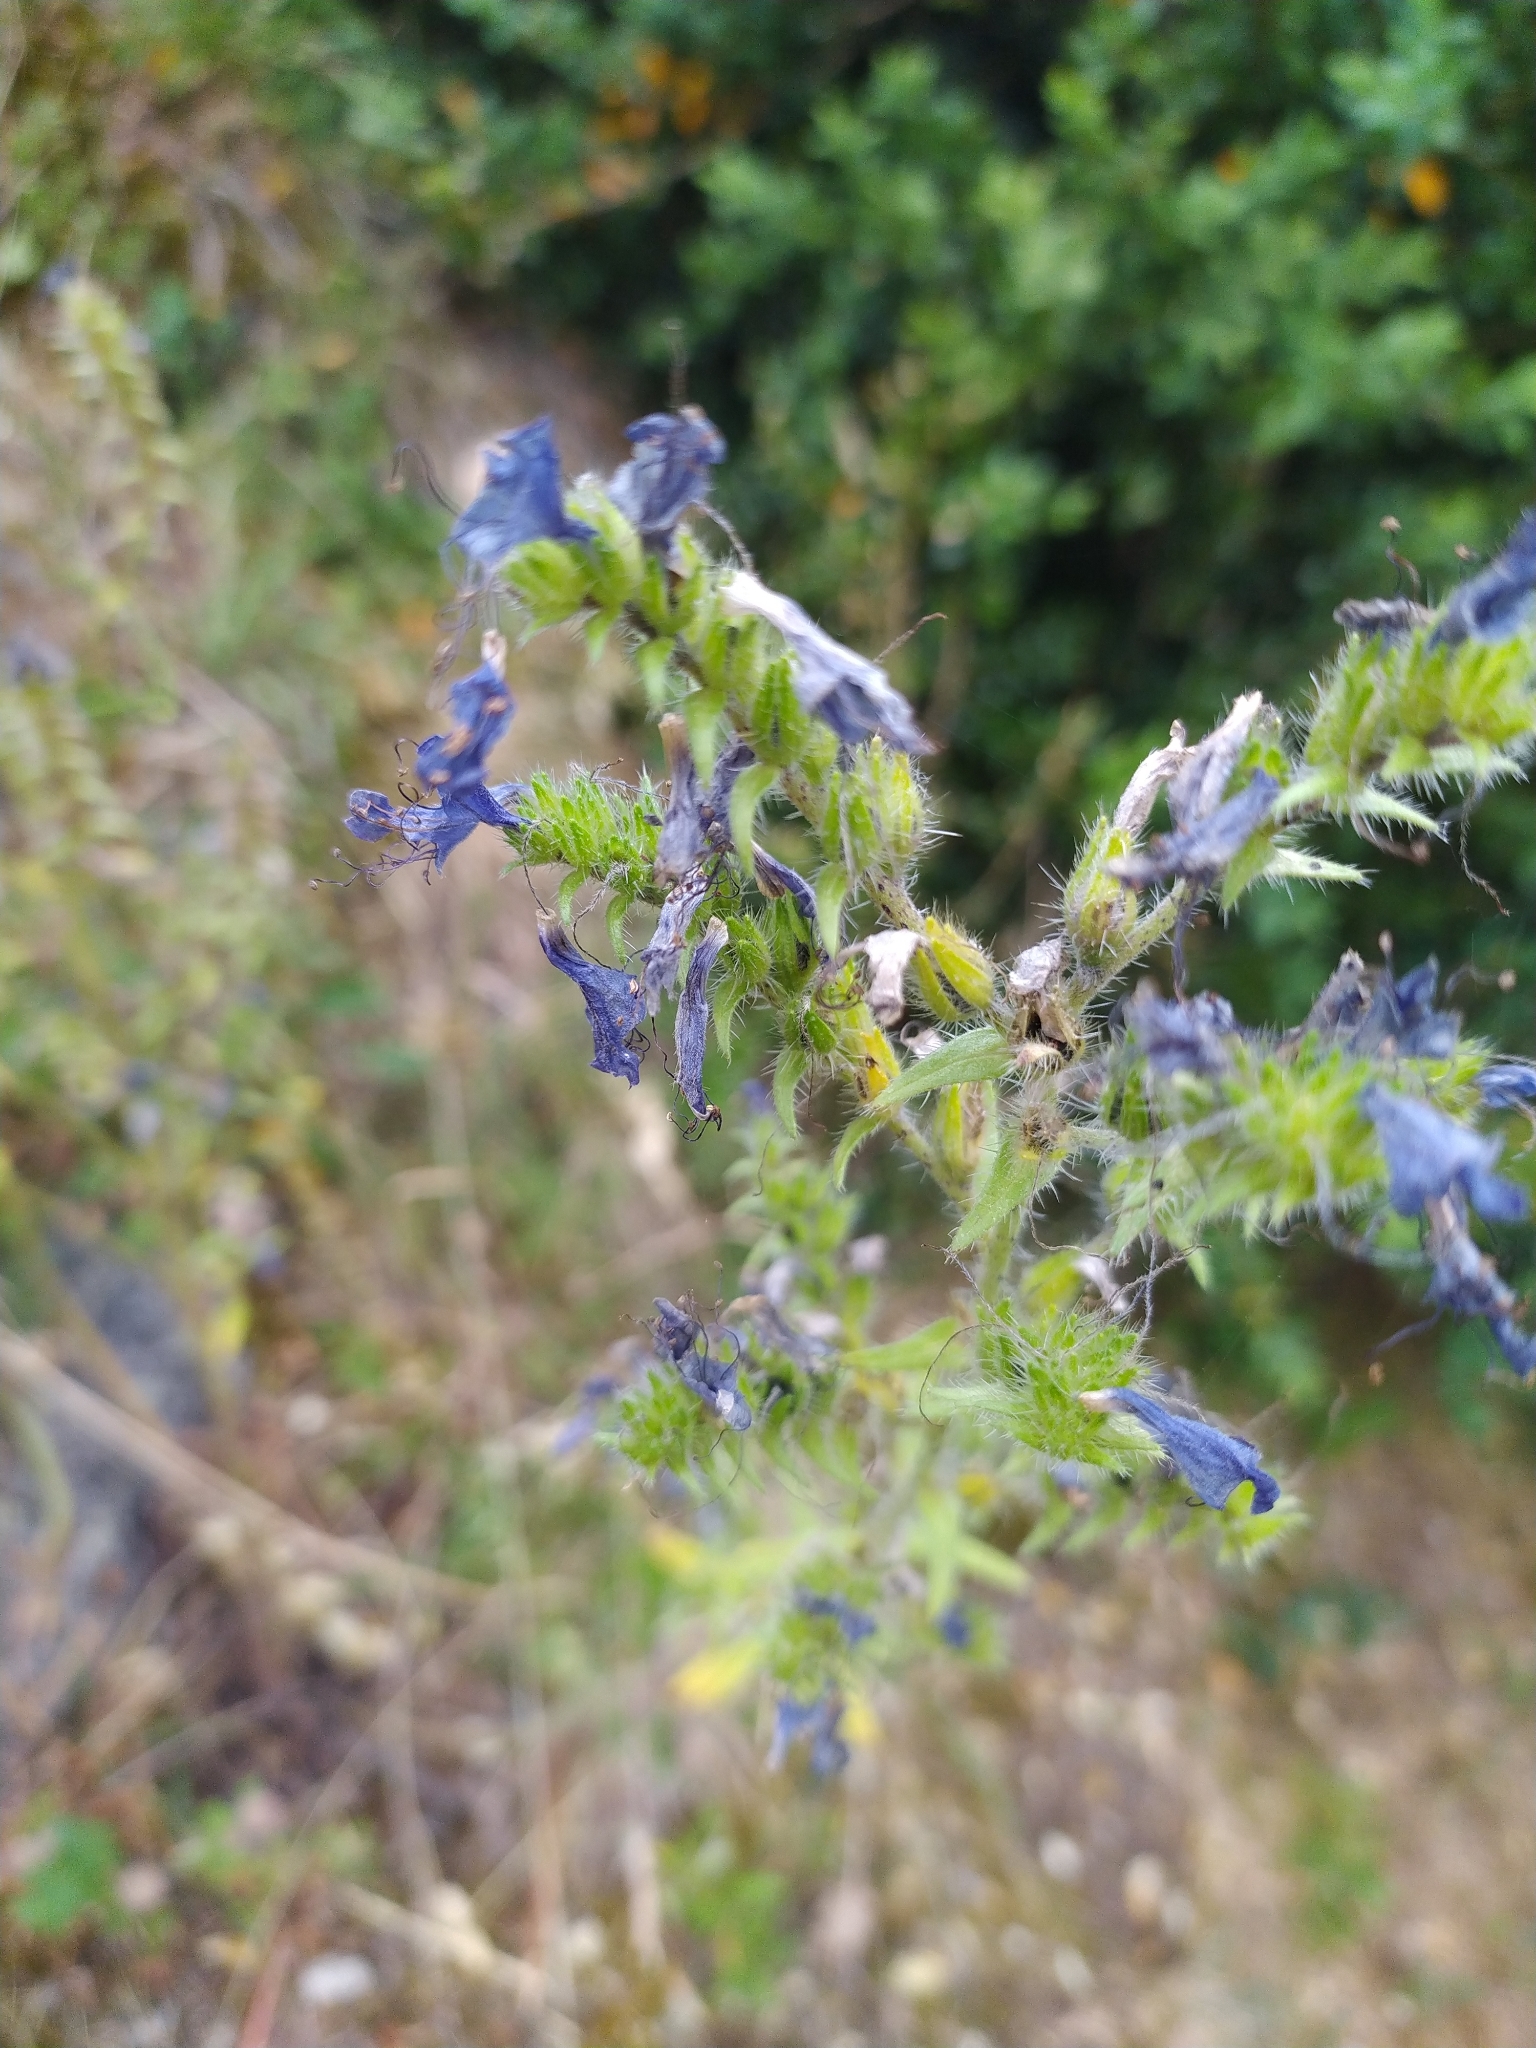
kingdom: Plantae
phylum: Tracheophyta
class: Magnoliopsida
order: Boraginales
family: Boraginaceae
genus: Echium
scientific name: Echium vulgare
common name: Common viper's bugloss
